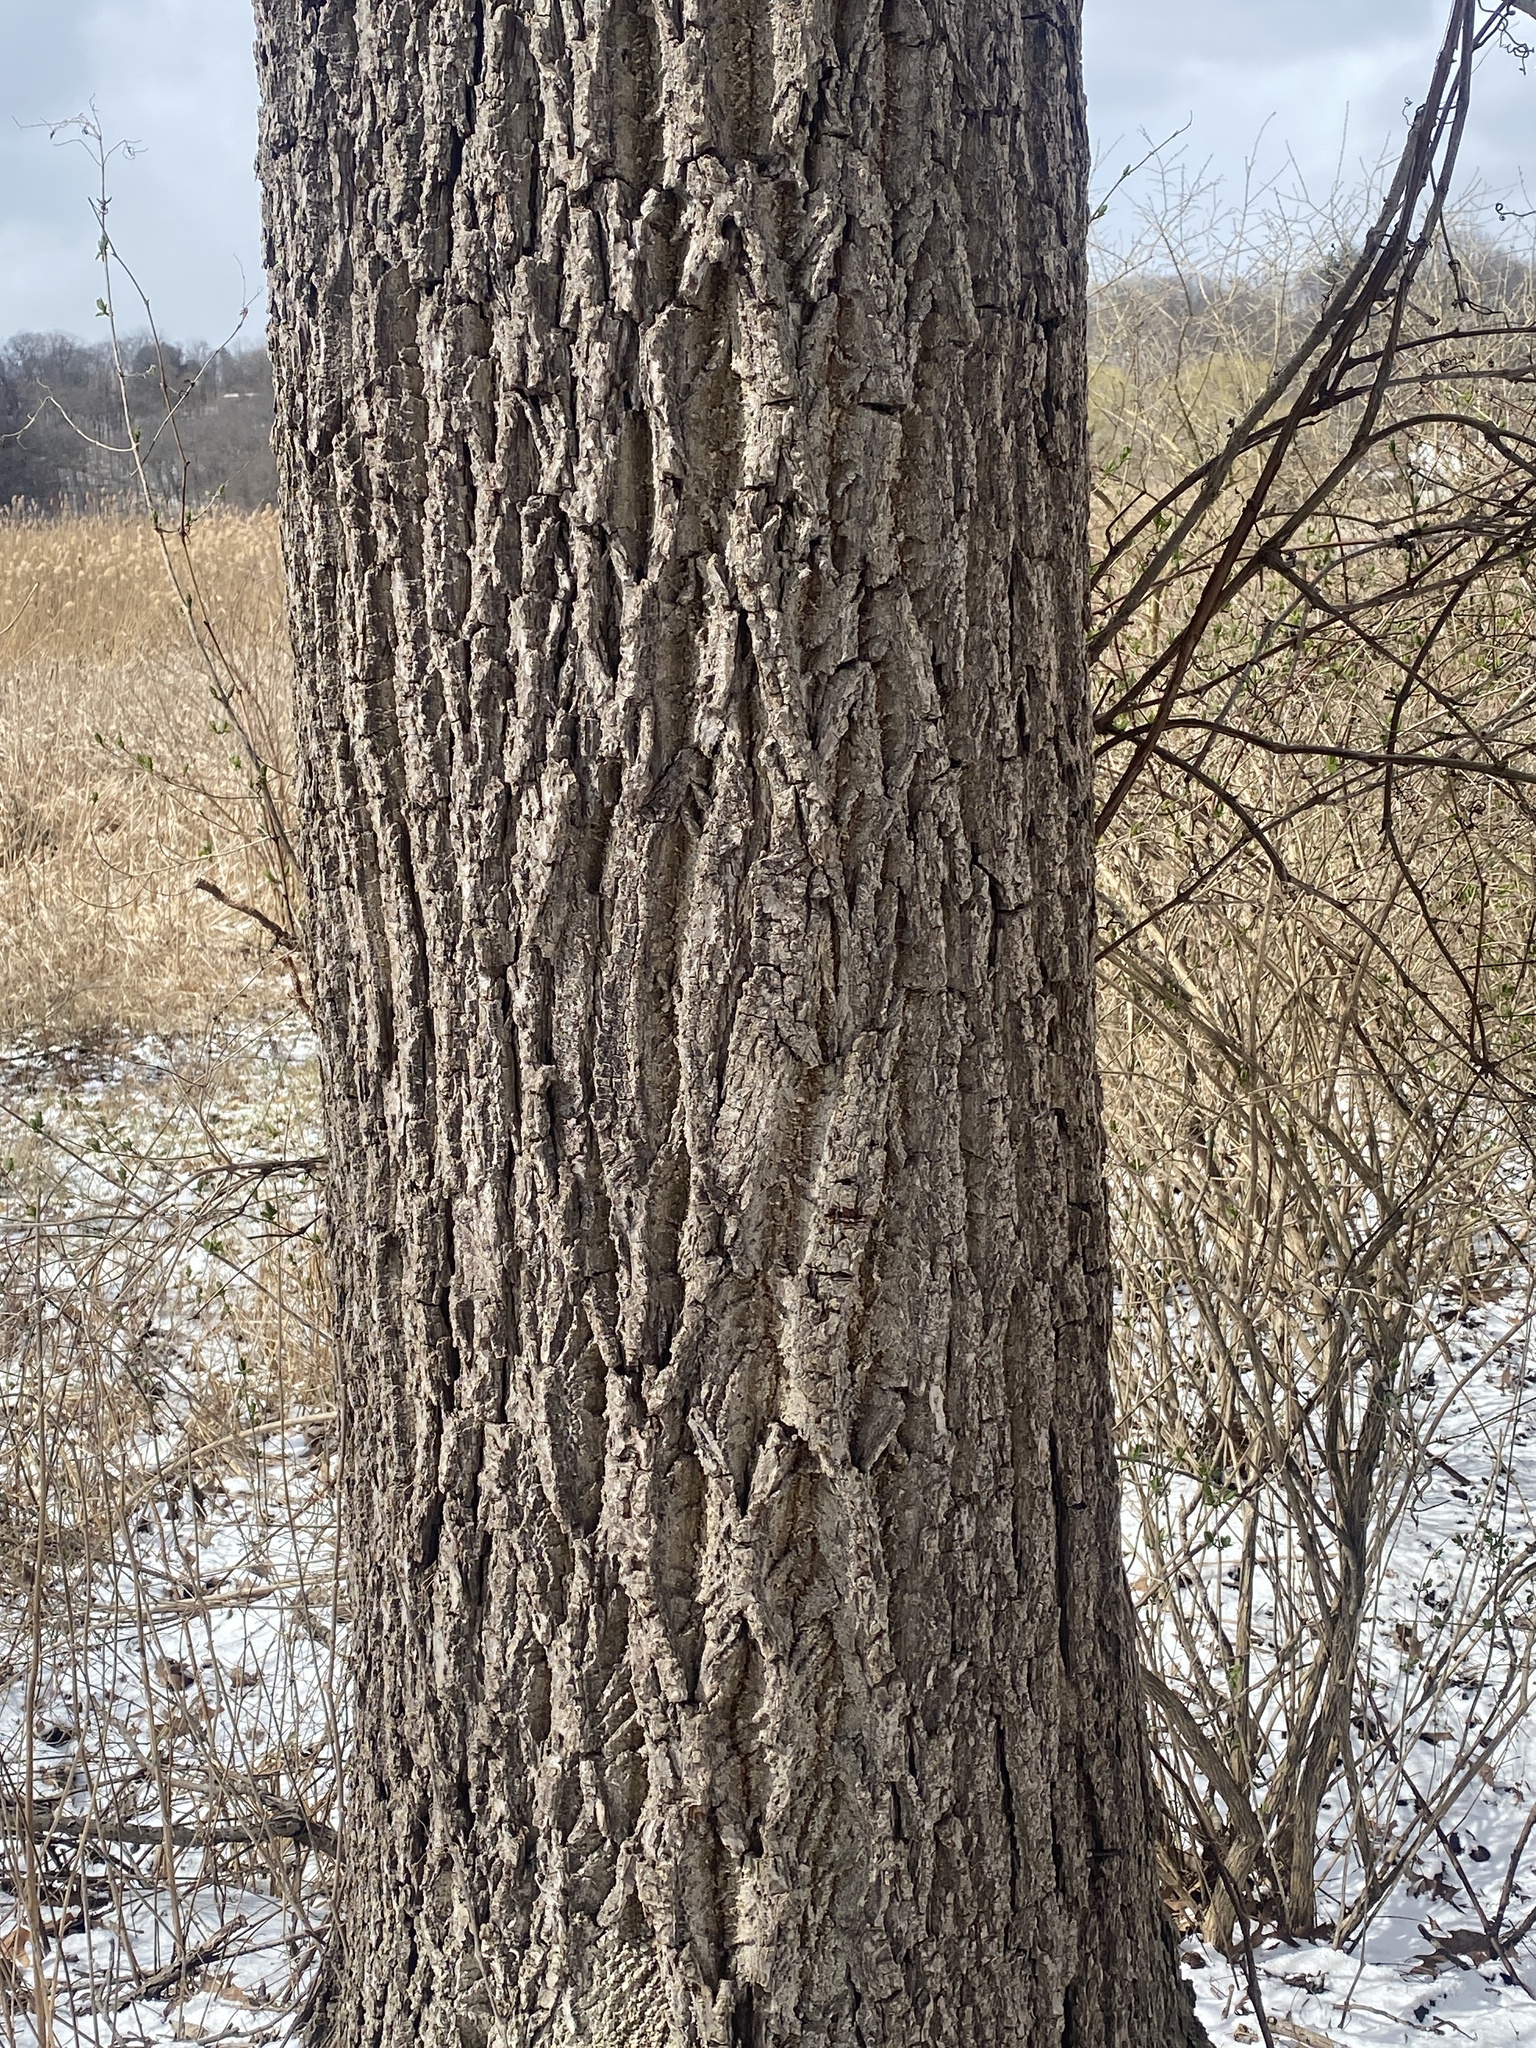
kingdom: Plantae
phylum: Tracheophyta
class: Magnoliopsida
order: Fagales
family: Juglandaceae
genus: Juglans
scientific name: Juglans nigra
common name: Black walnut
